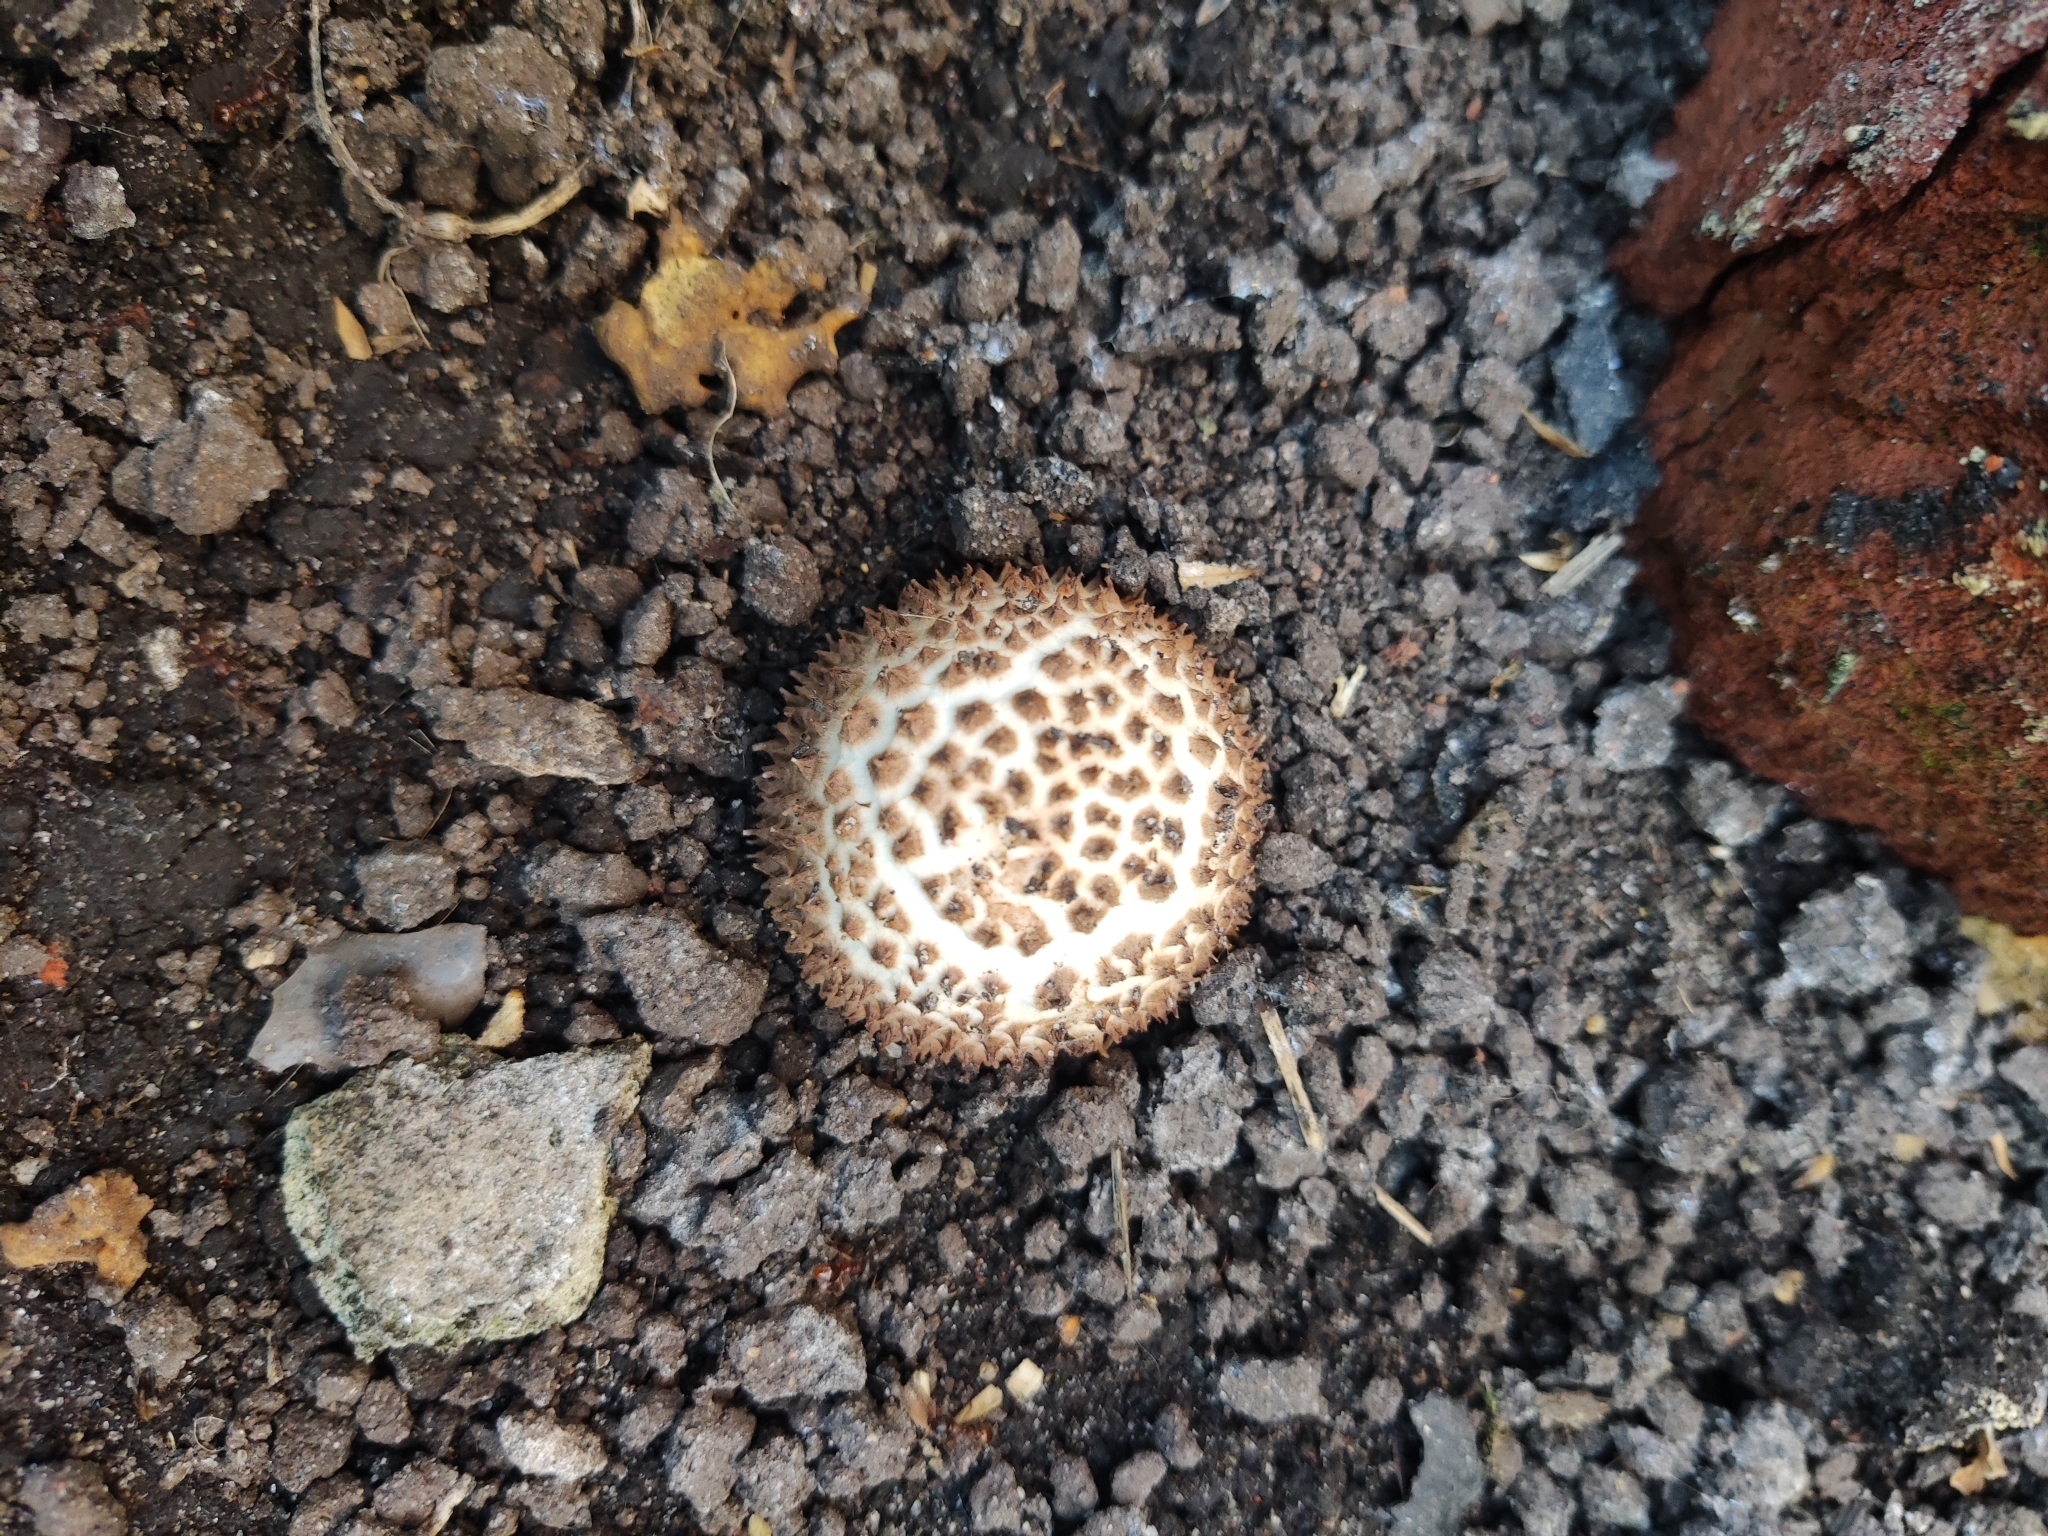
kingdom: Fungi
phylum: Basidiomycota
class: Agaricomycetes
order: Agaricales
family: Agaricaceae
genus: Echinoderma
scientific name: Echinoderma asperum
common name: Freckled dapperling
